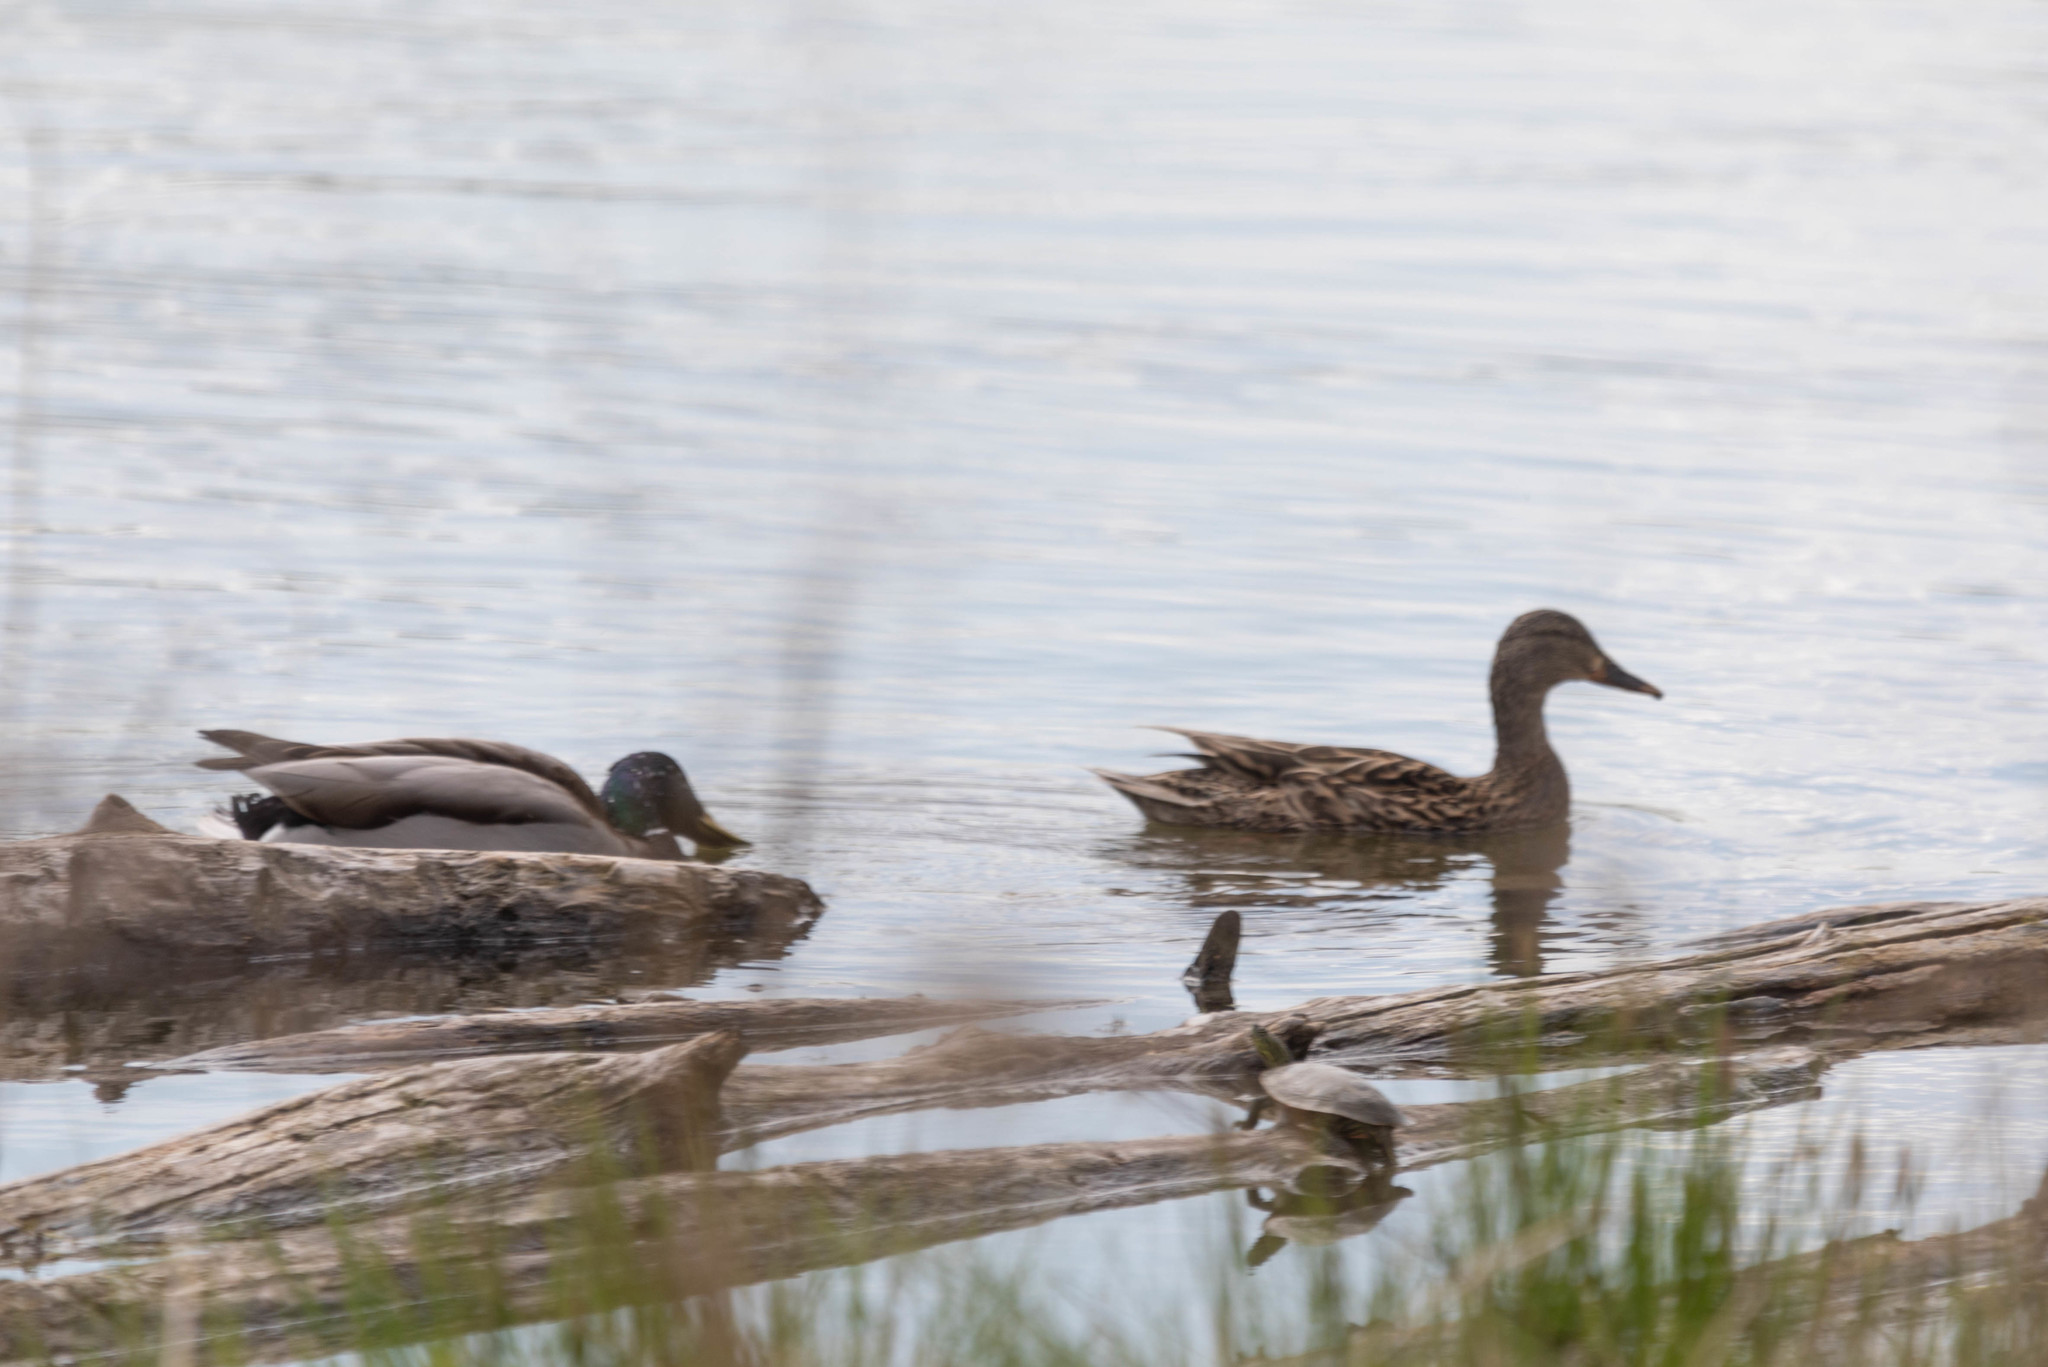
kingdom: Animalia
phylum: Chordata
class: Aves
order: Anseriformes
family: Anatidae
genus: Anas
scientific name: Anas platyrhynchos
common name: Mallard
